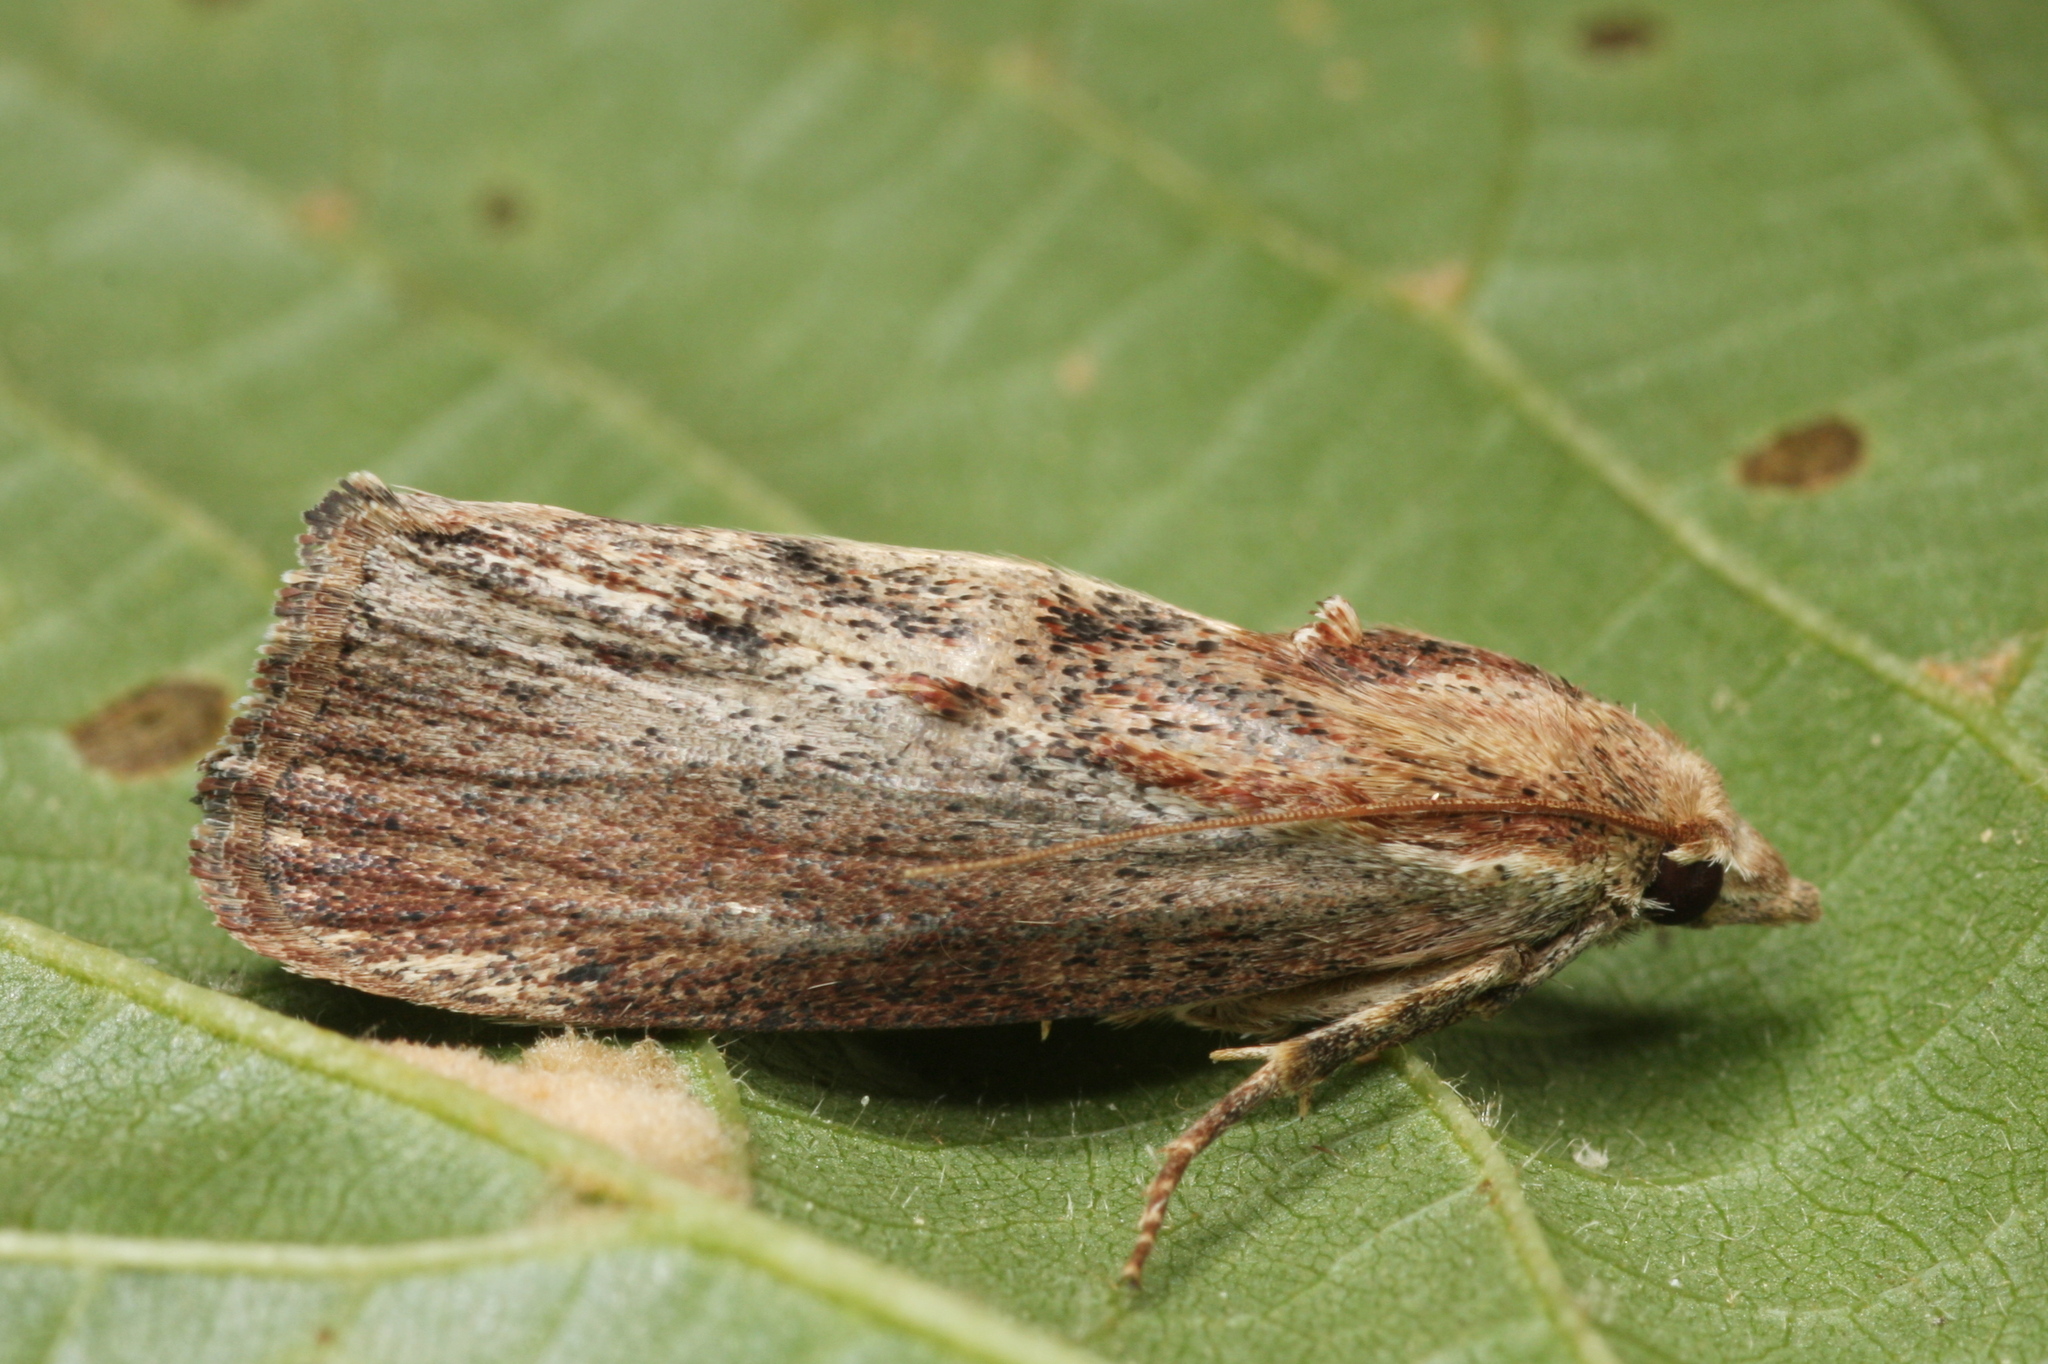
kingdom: Animalia
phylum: Arthropoda
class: Insecta
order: Lepidoptera
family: Pyralidae
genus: Galleria
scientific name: Galleria mellonella
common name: Greater wax moth
